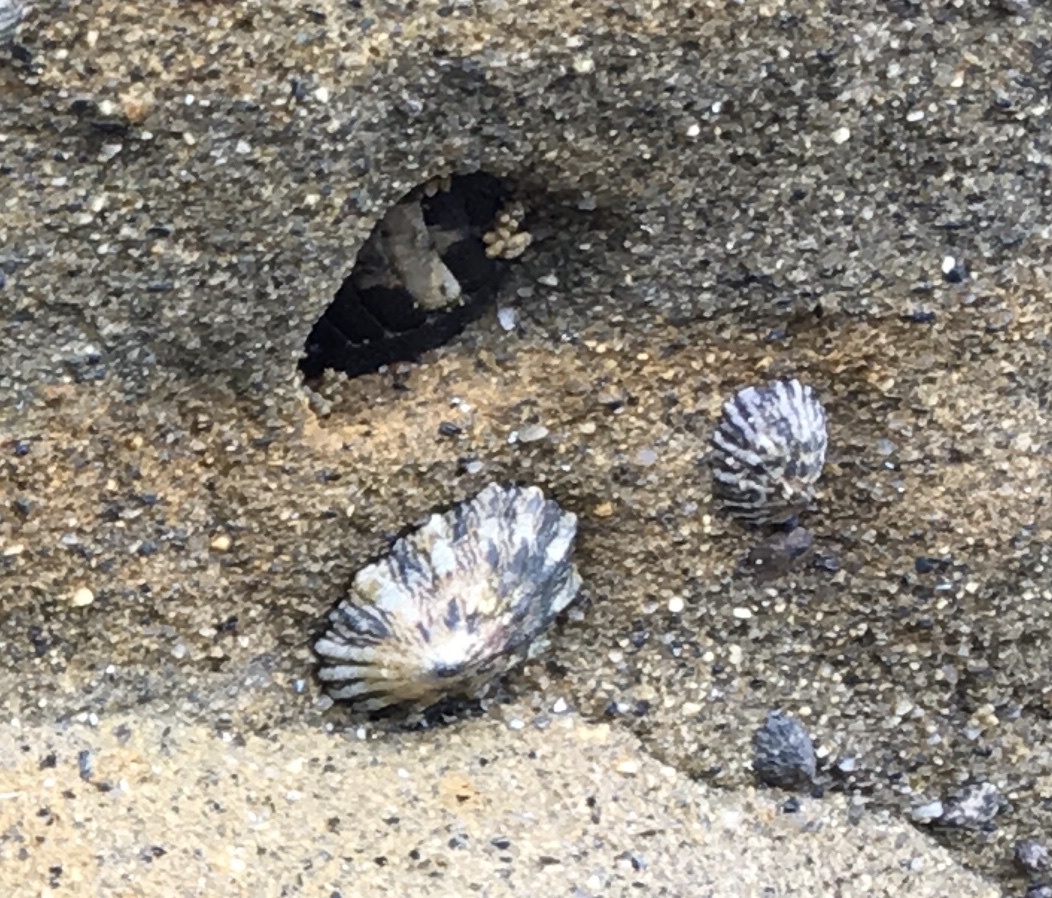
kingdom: Animalia
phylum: Mollusca
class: Gastropoda
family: Lottiidae
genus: Lottia
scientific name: Lottia scabra
